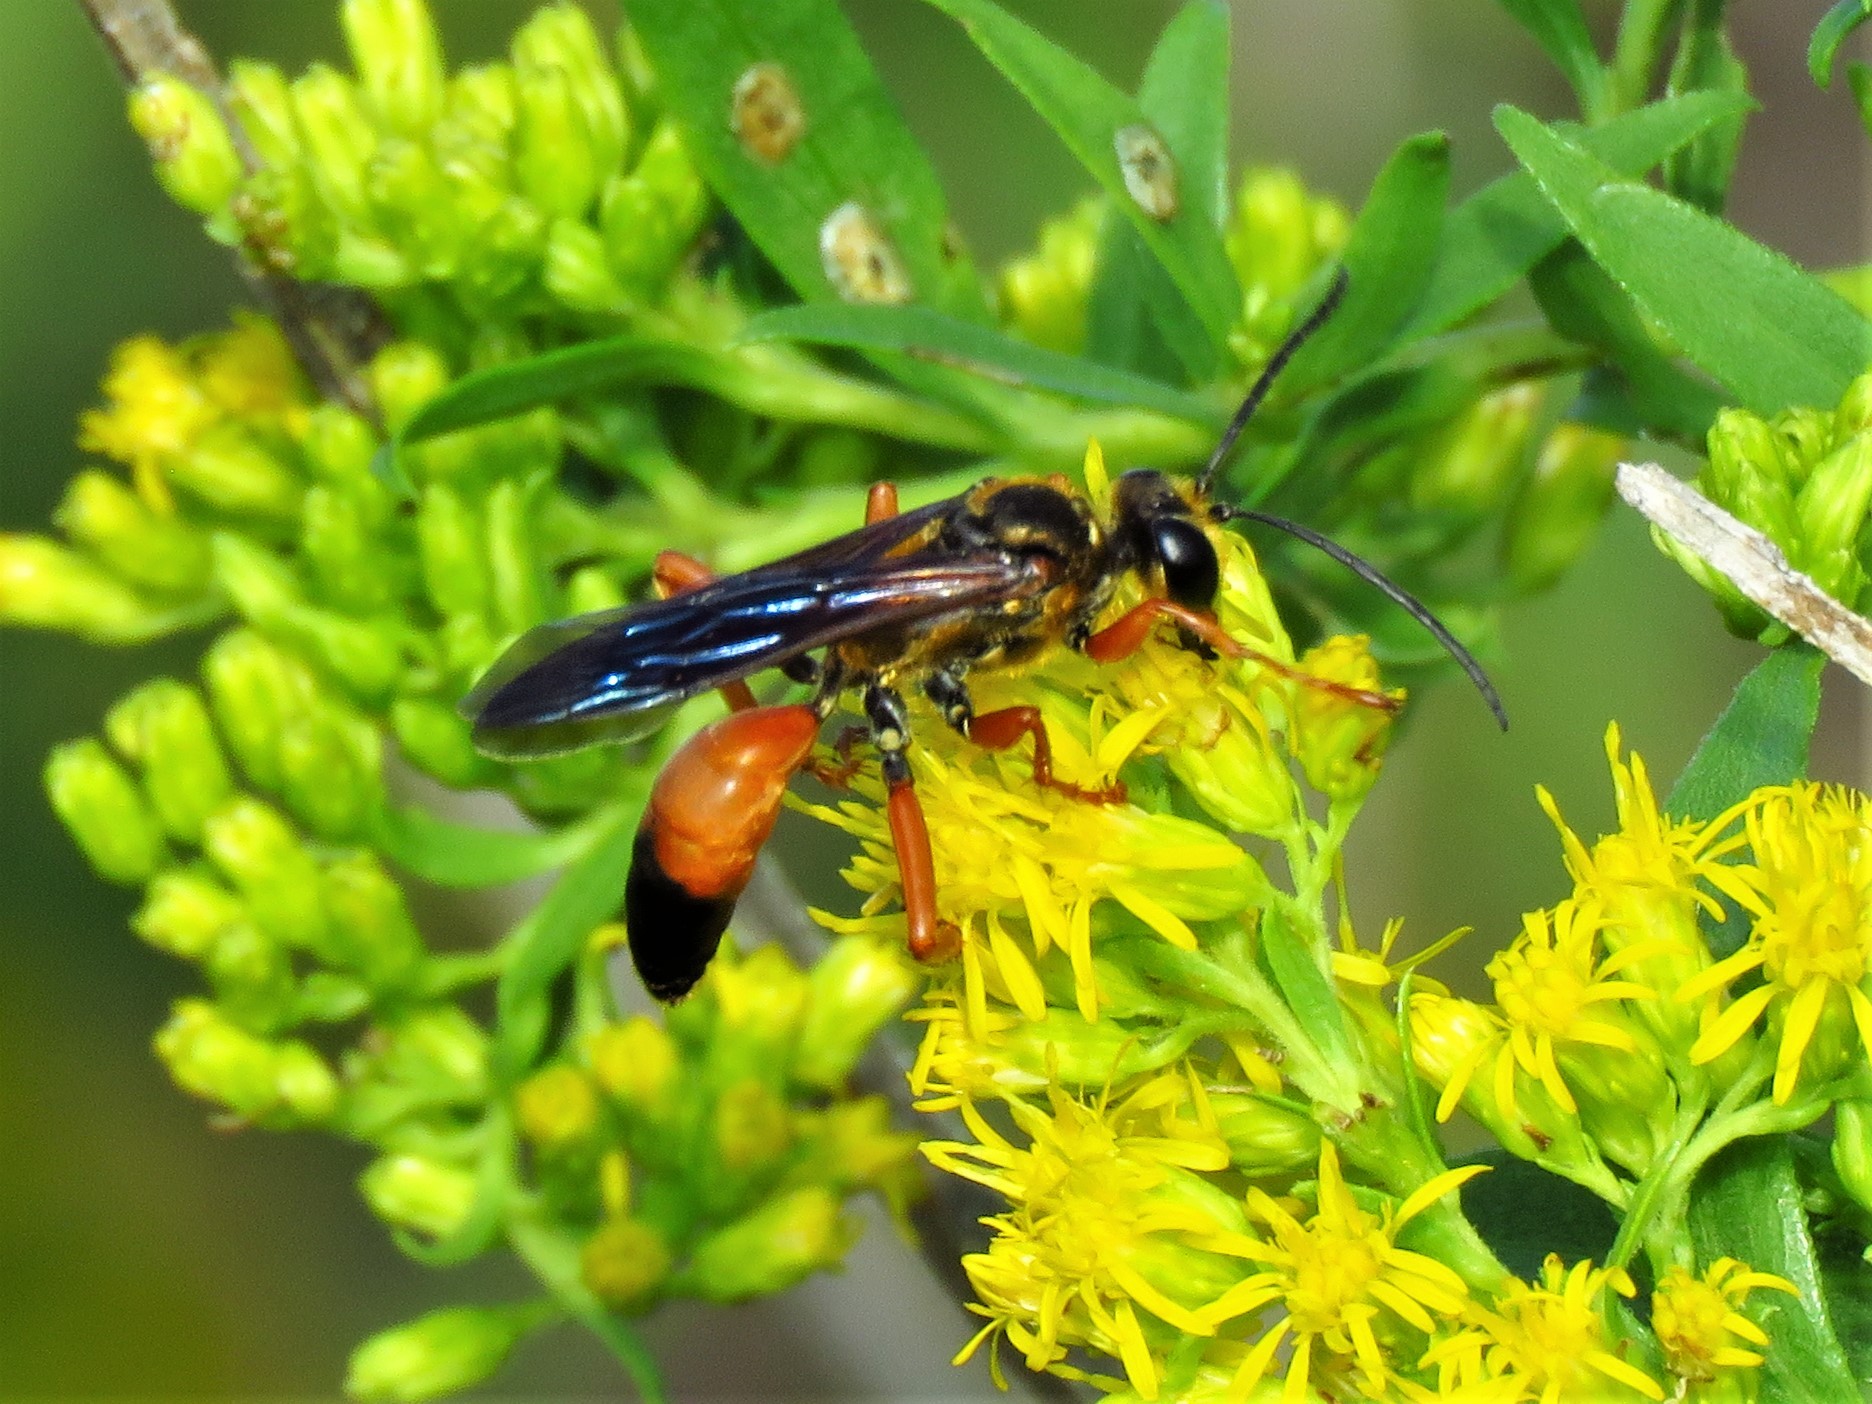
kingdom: Animalia
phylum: Arthropoda
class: Insecta
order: Hymenoptera
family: Sphecidae
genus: Sphex
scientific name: Sphex ichneumoneus
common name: Great golden digger wasp
